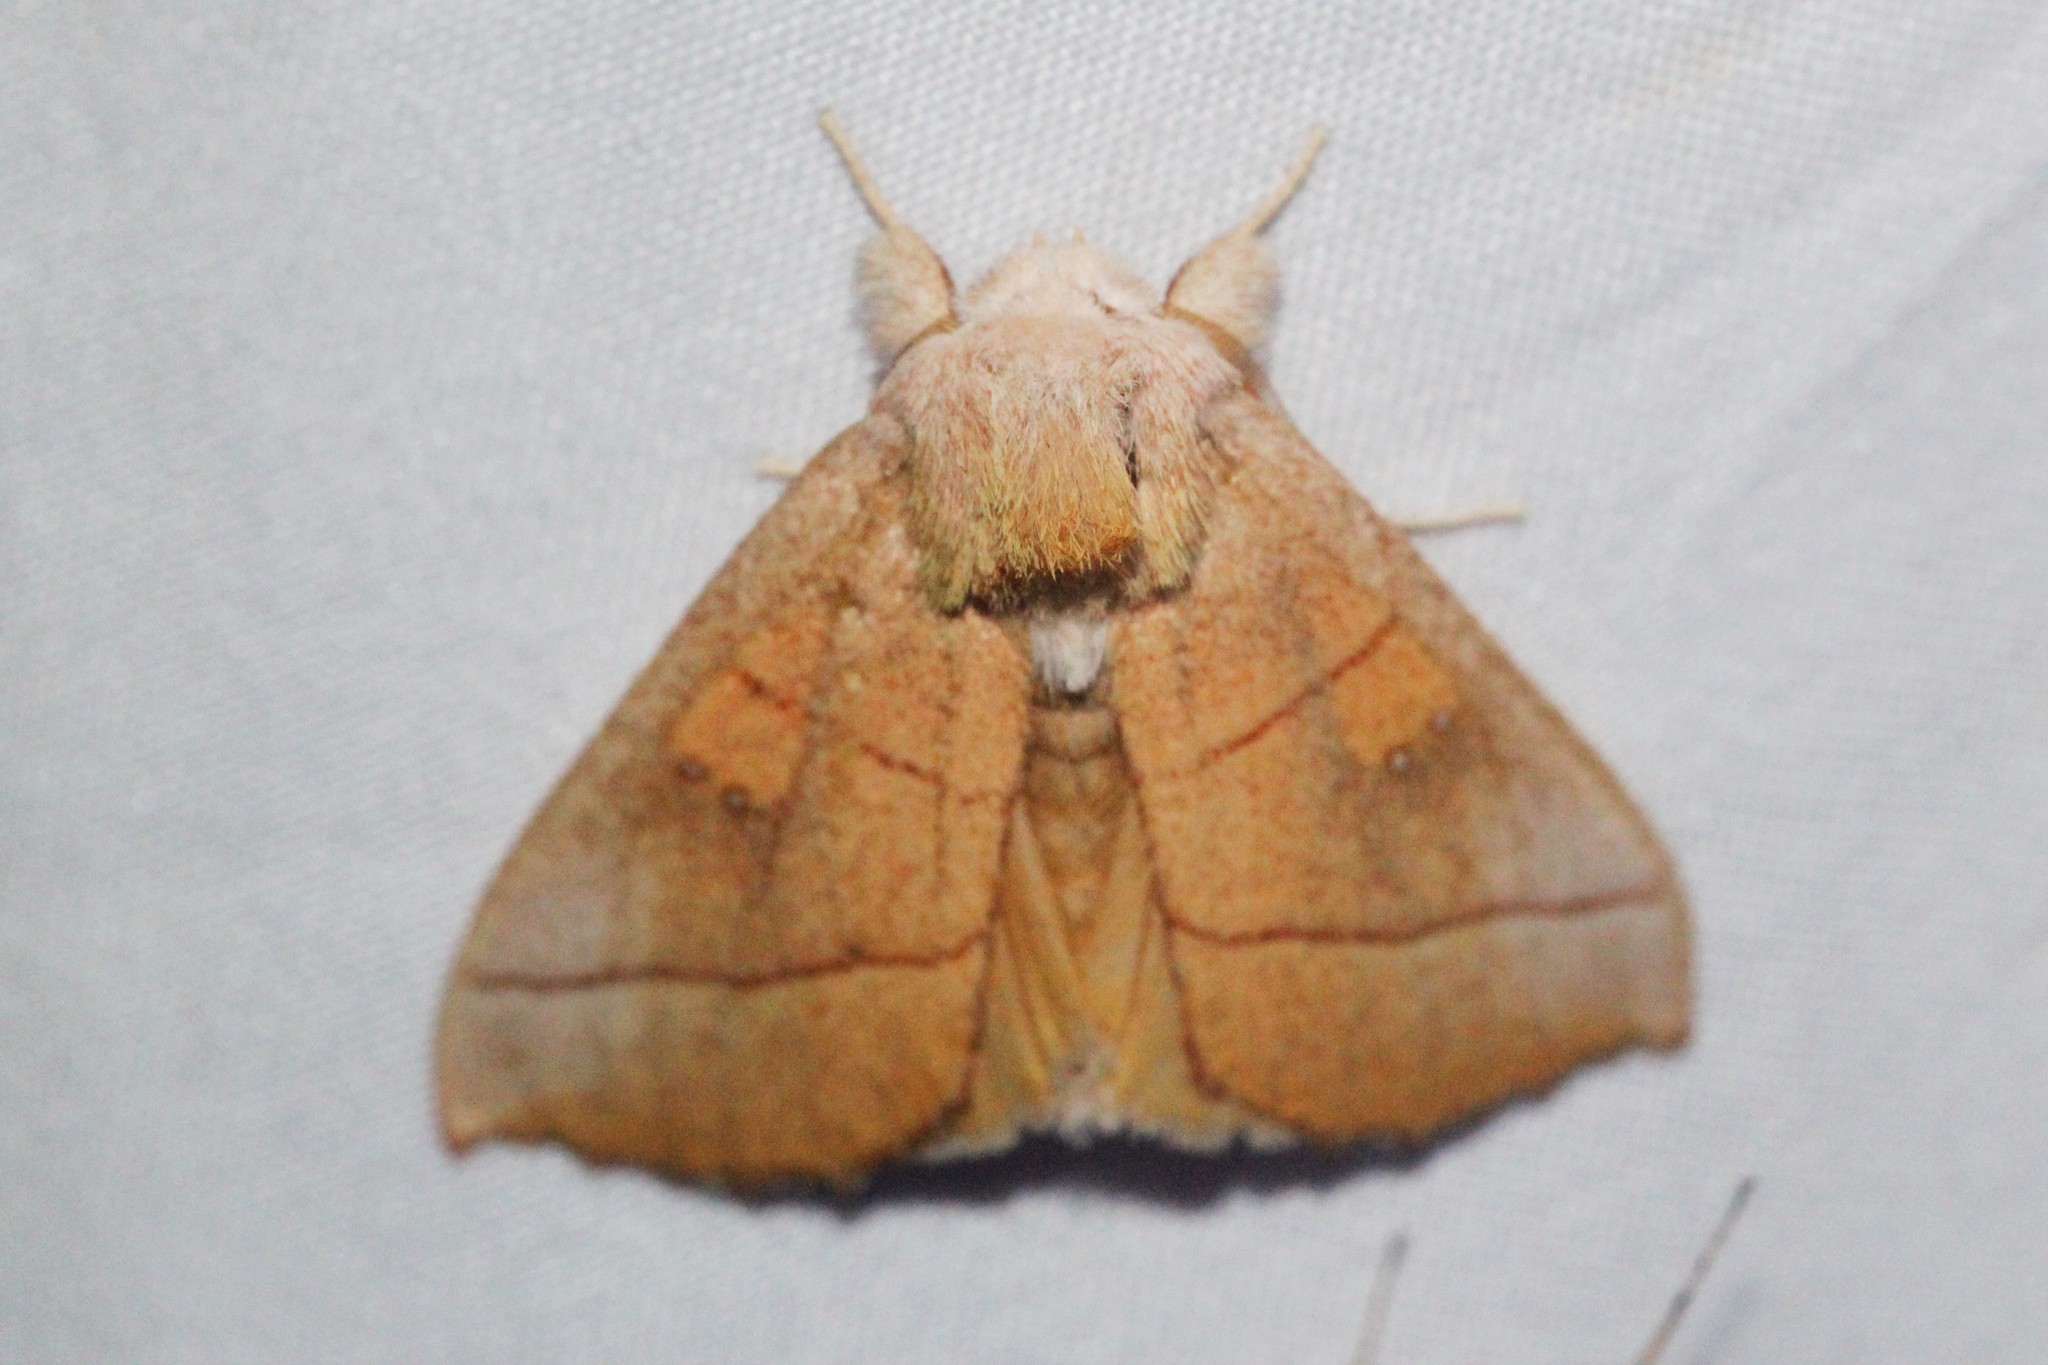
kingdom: Animalia
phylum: Arthropoda
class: Insecta
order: Lepidoptera
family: Notodontidae
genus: Nadata
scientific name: Nadata gibbosa
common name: White-dotted prominent
